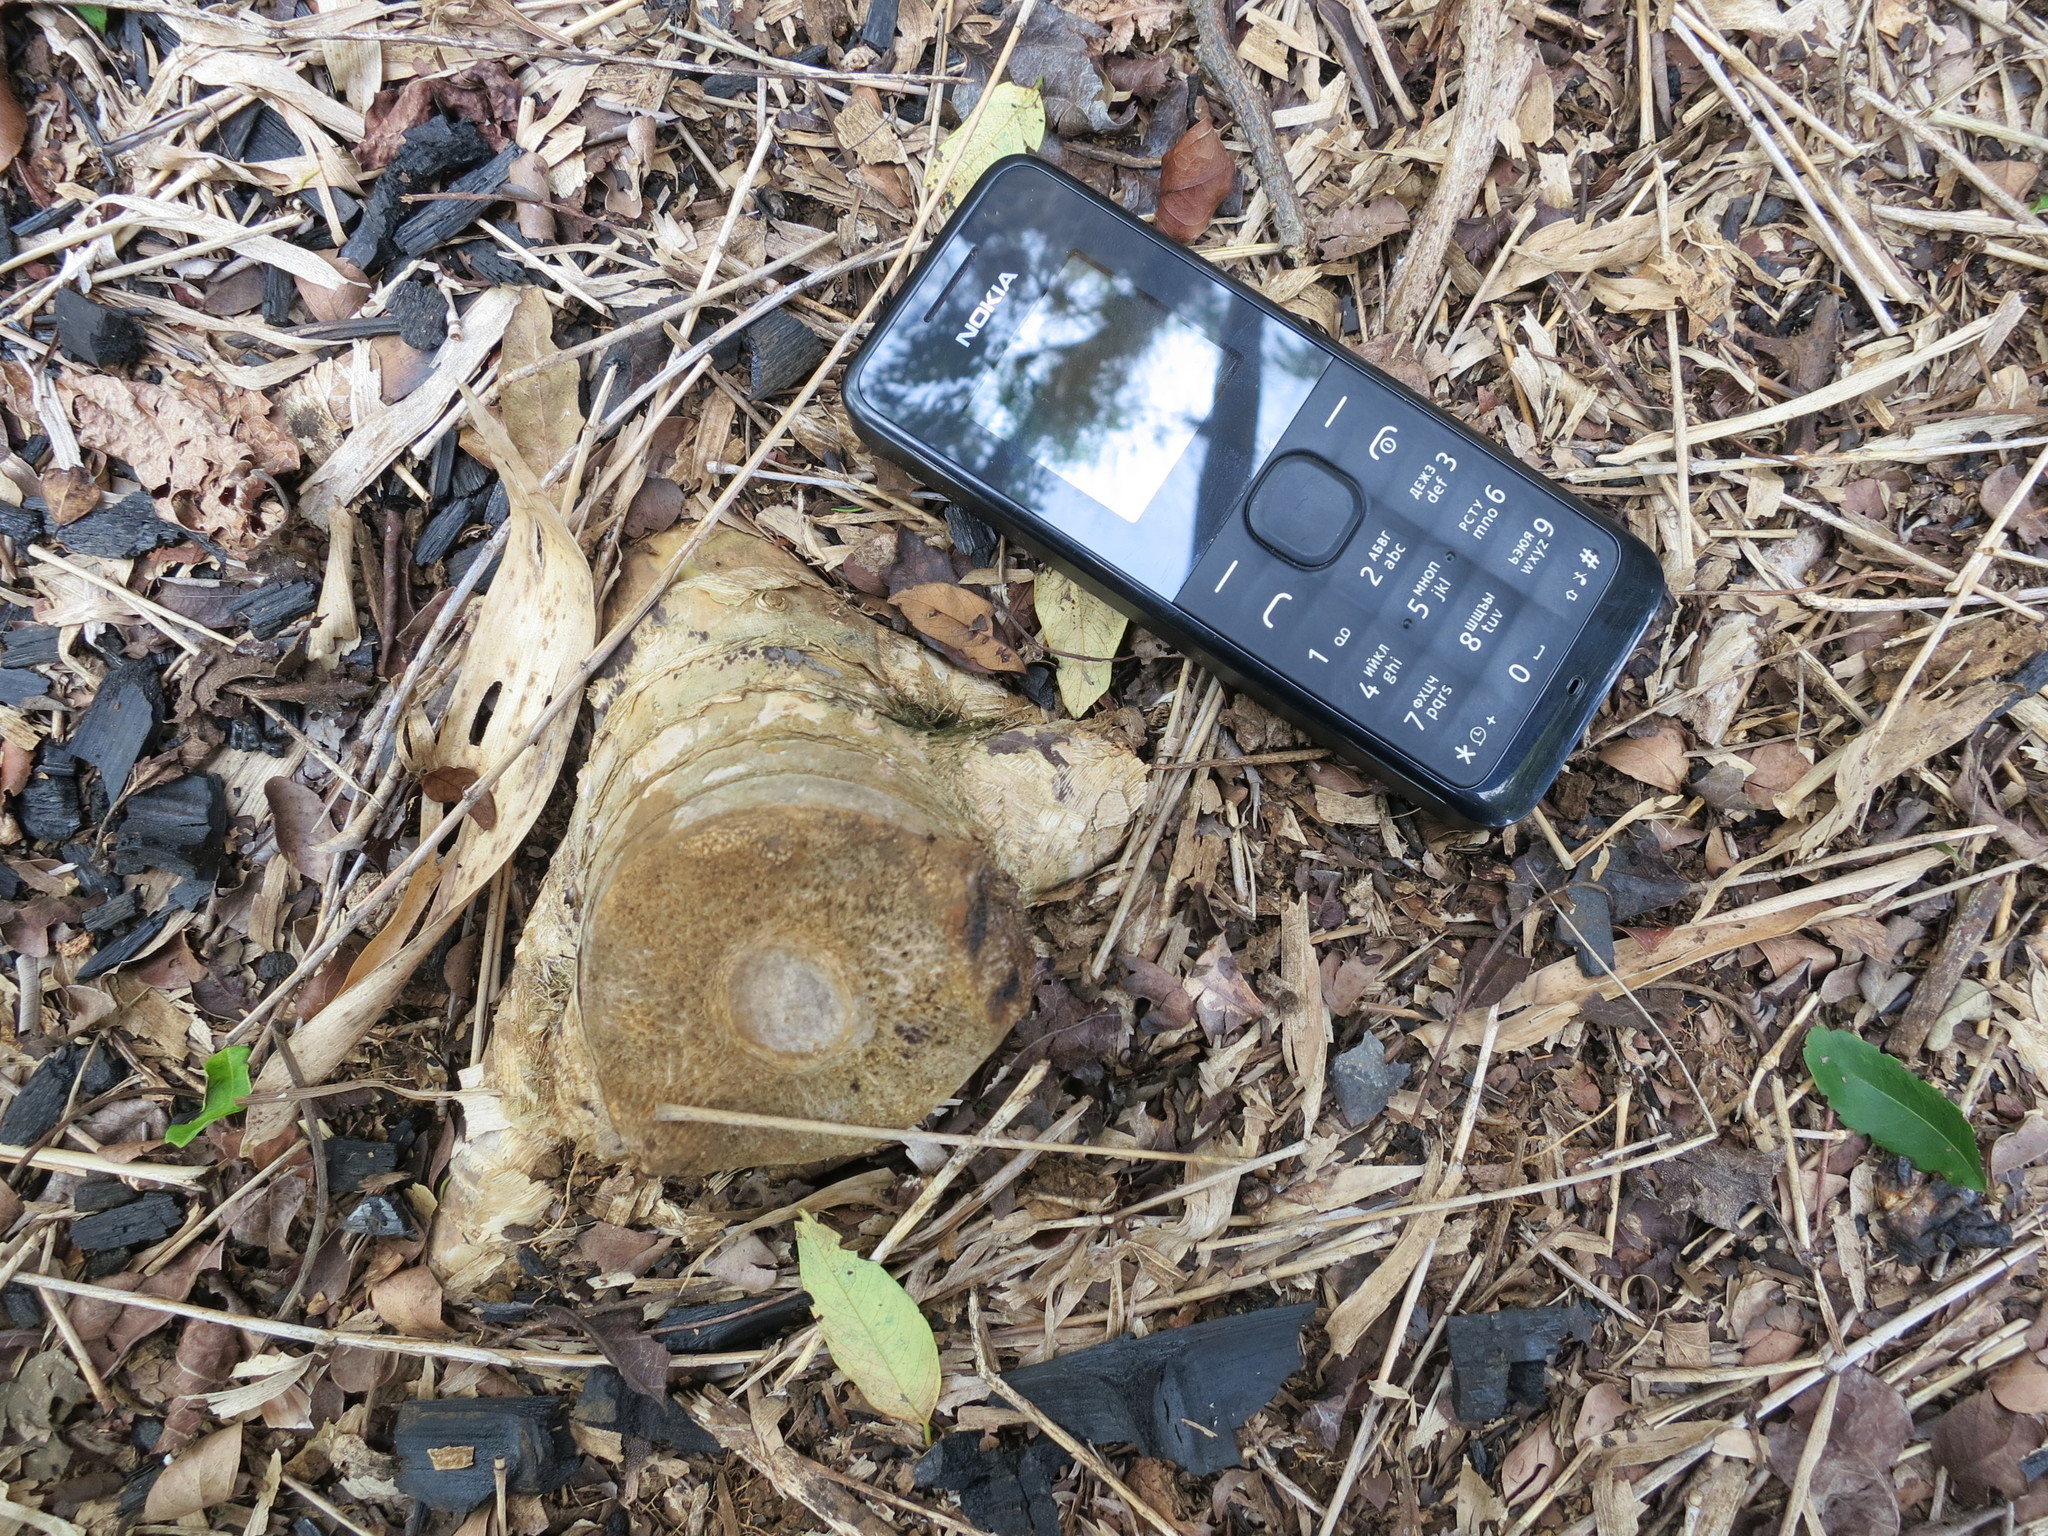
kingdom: Plantae
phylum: Tracheophyta
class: Liliopsida
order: Poales
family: Poaceae
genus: Valiha
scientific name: Valiha diffusa
